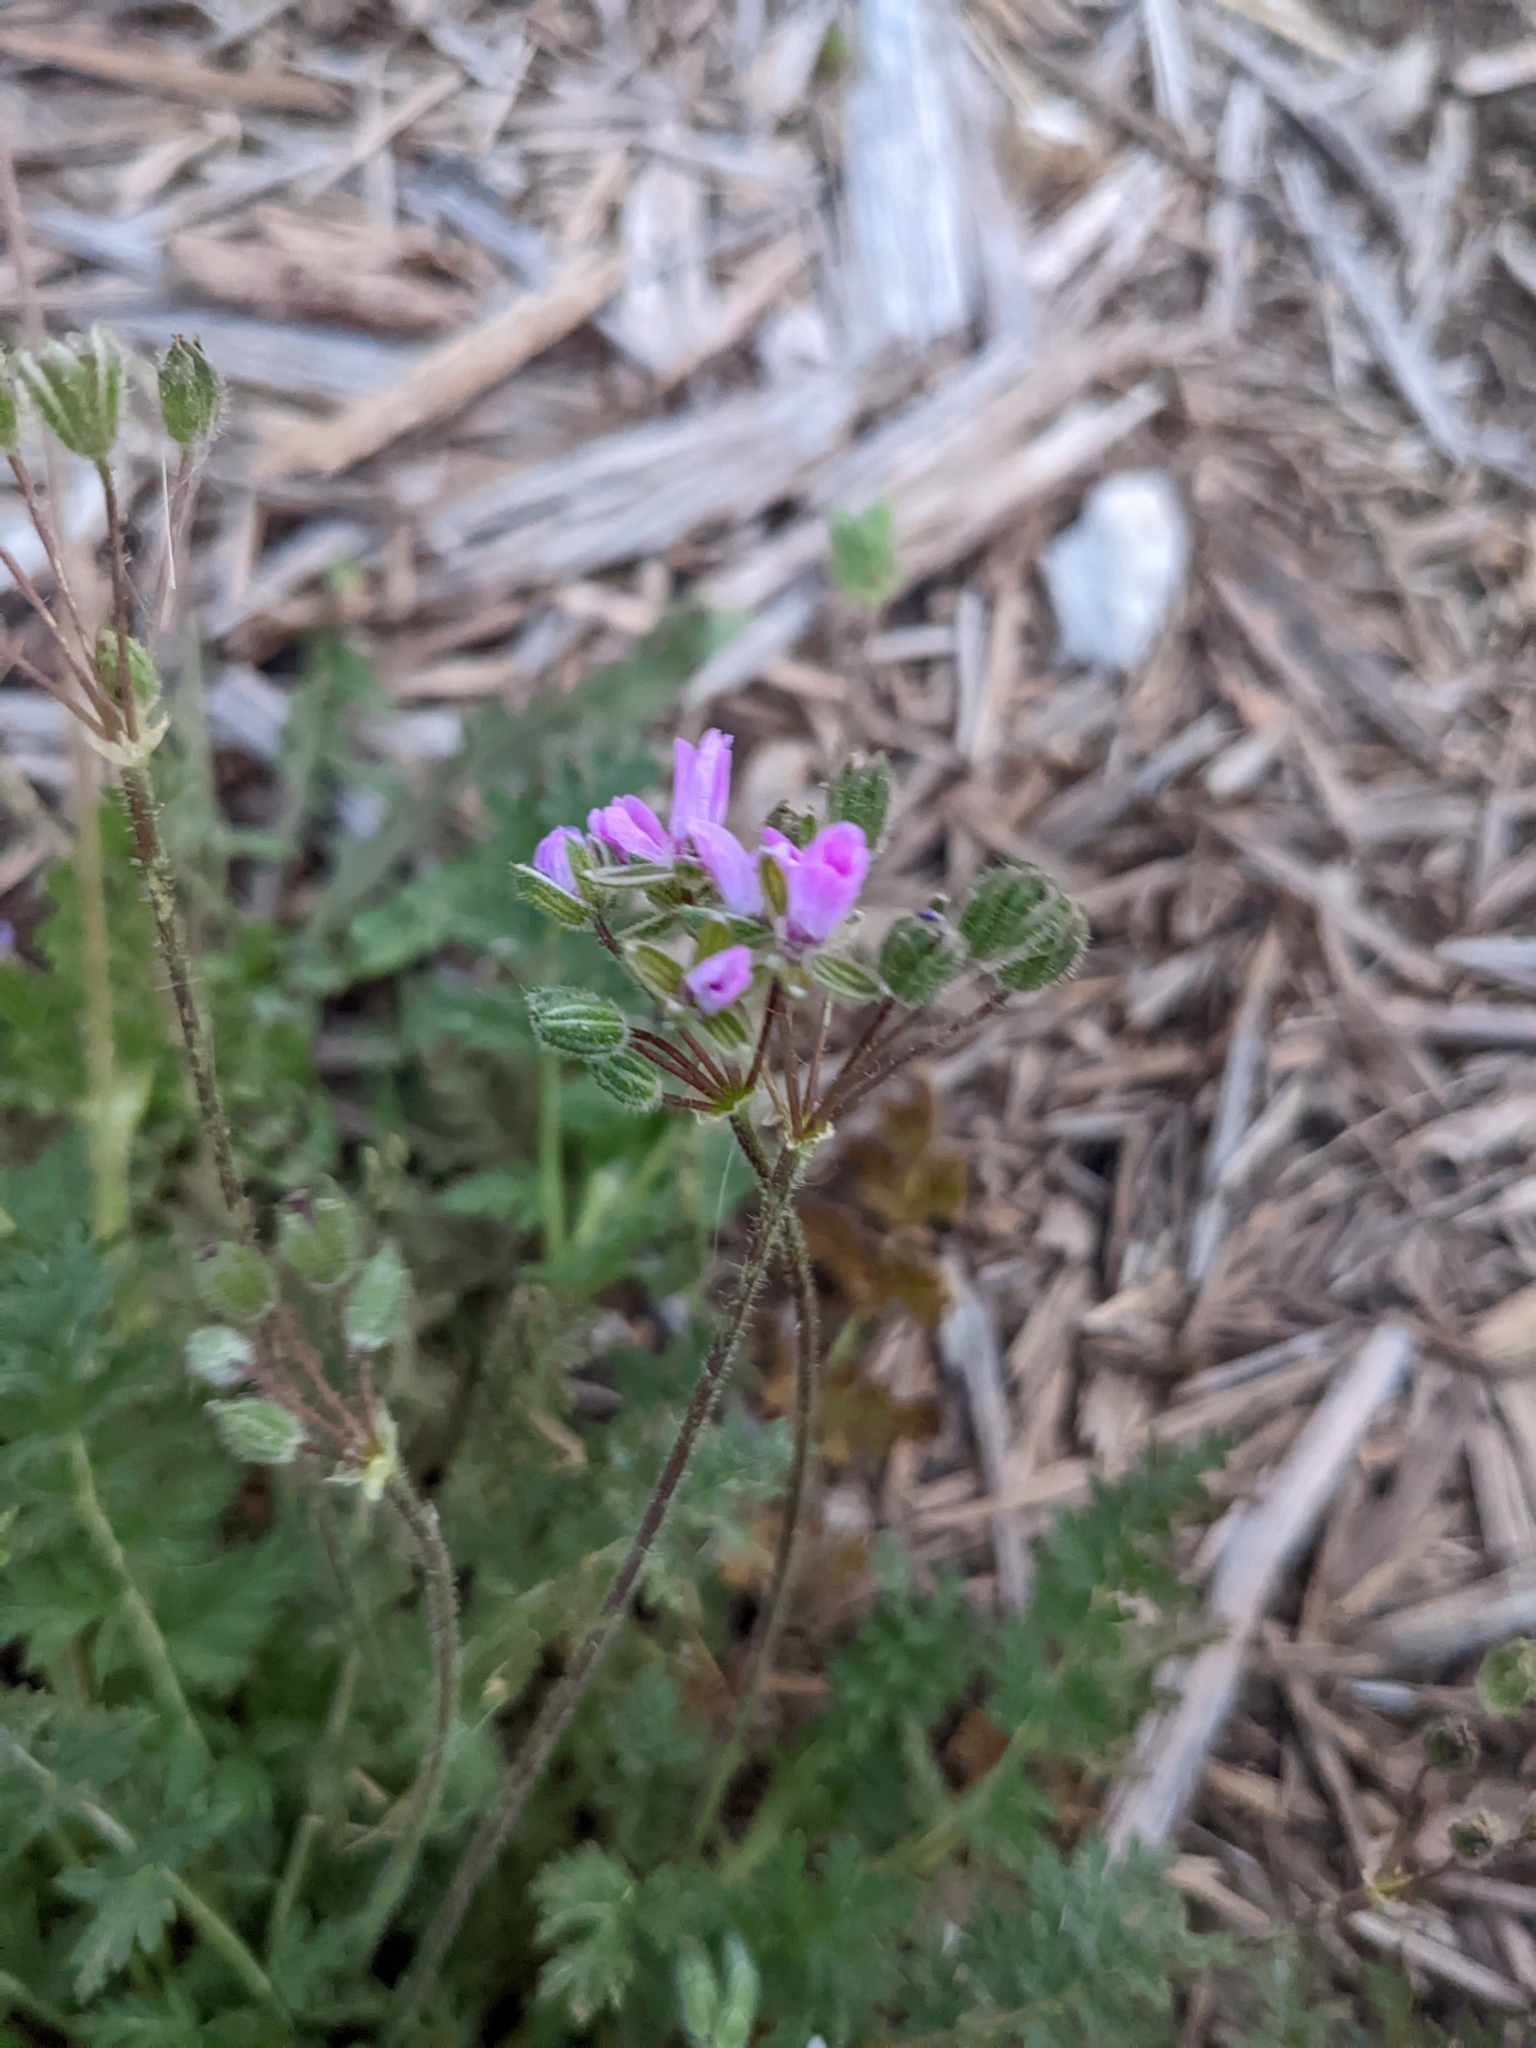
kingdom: Plantae
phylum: Tracheophyta
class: Magnoliopsida
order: Geraniales
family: Geraniaceae
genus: Erodium
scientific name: Erodium cicutarium
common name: Common stork's-bill
